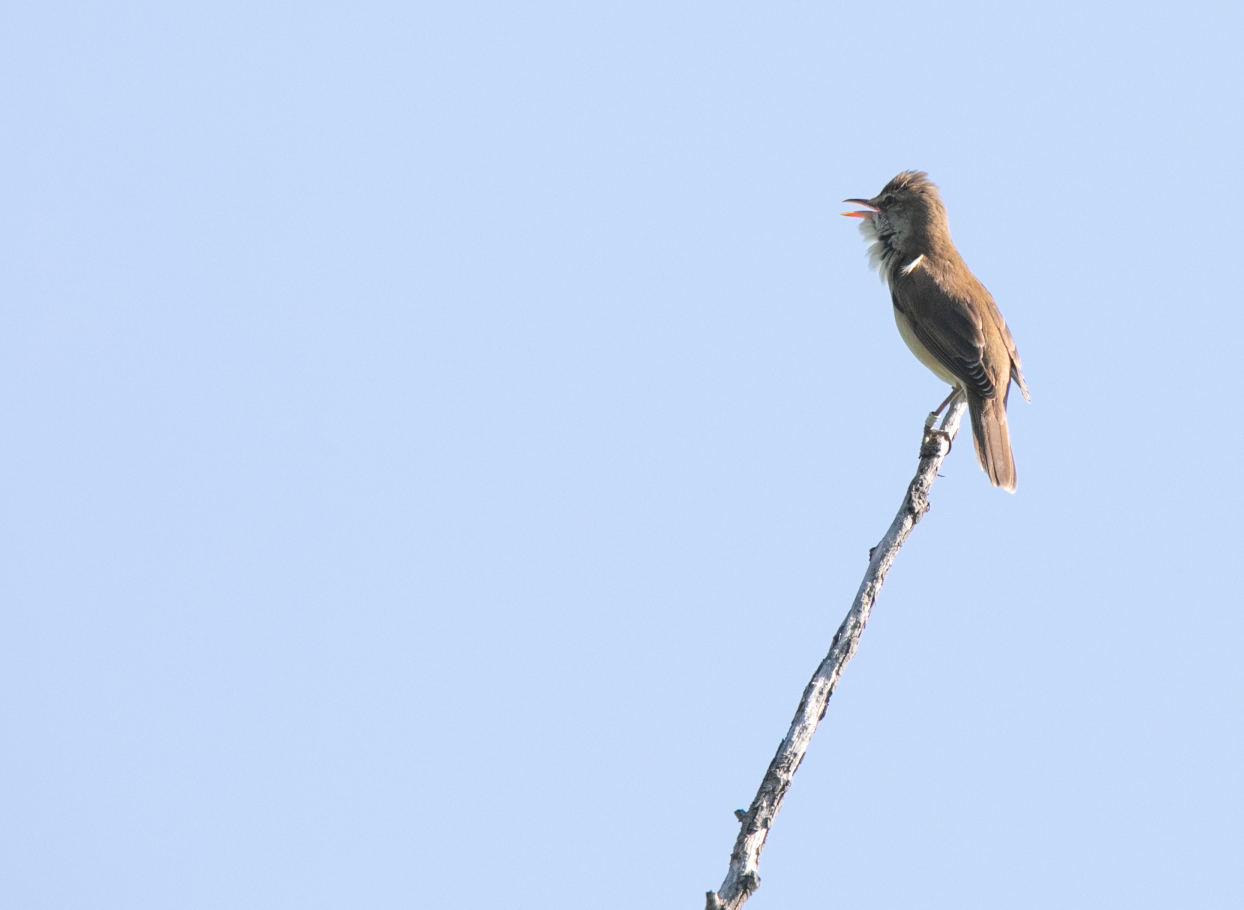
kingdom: Animalia
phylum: Chordata
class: Aves
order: Passeriformes
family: Acrocephalidae
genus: Acrocephalus
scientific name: Acrocephalus arundinaceus
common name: Great reed warbler
